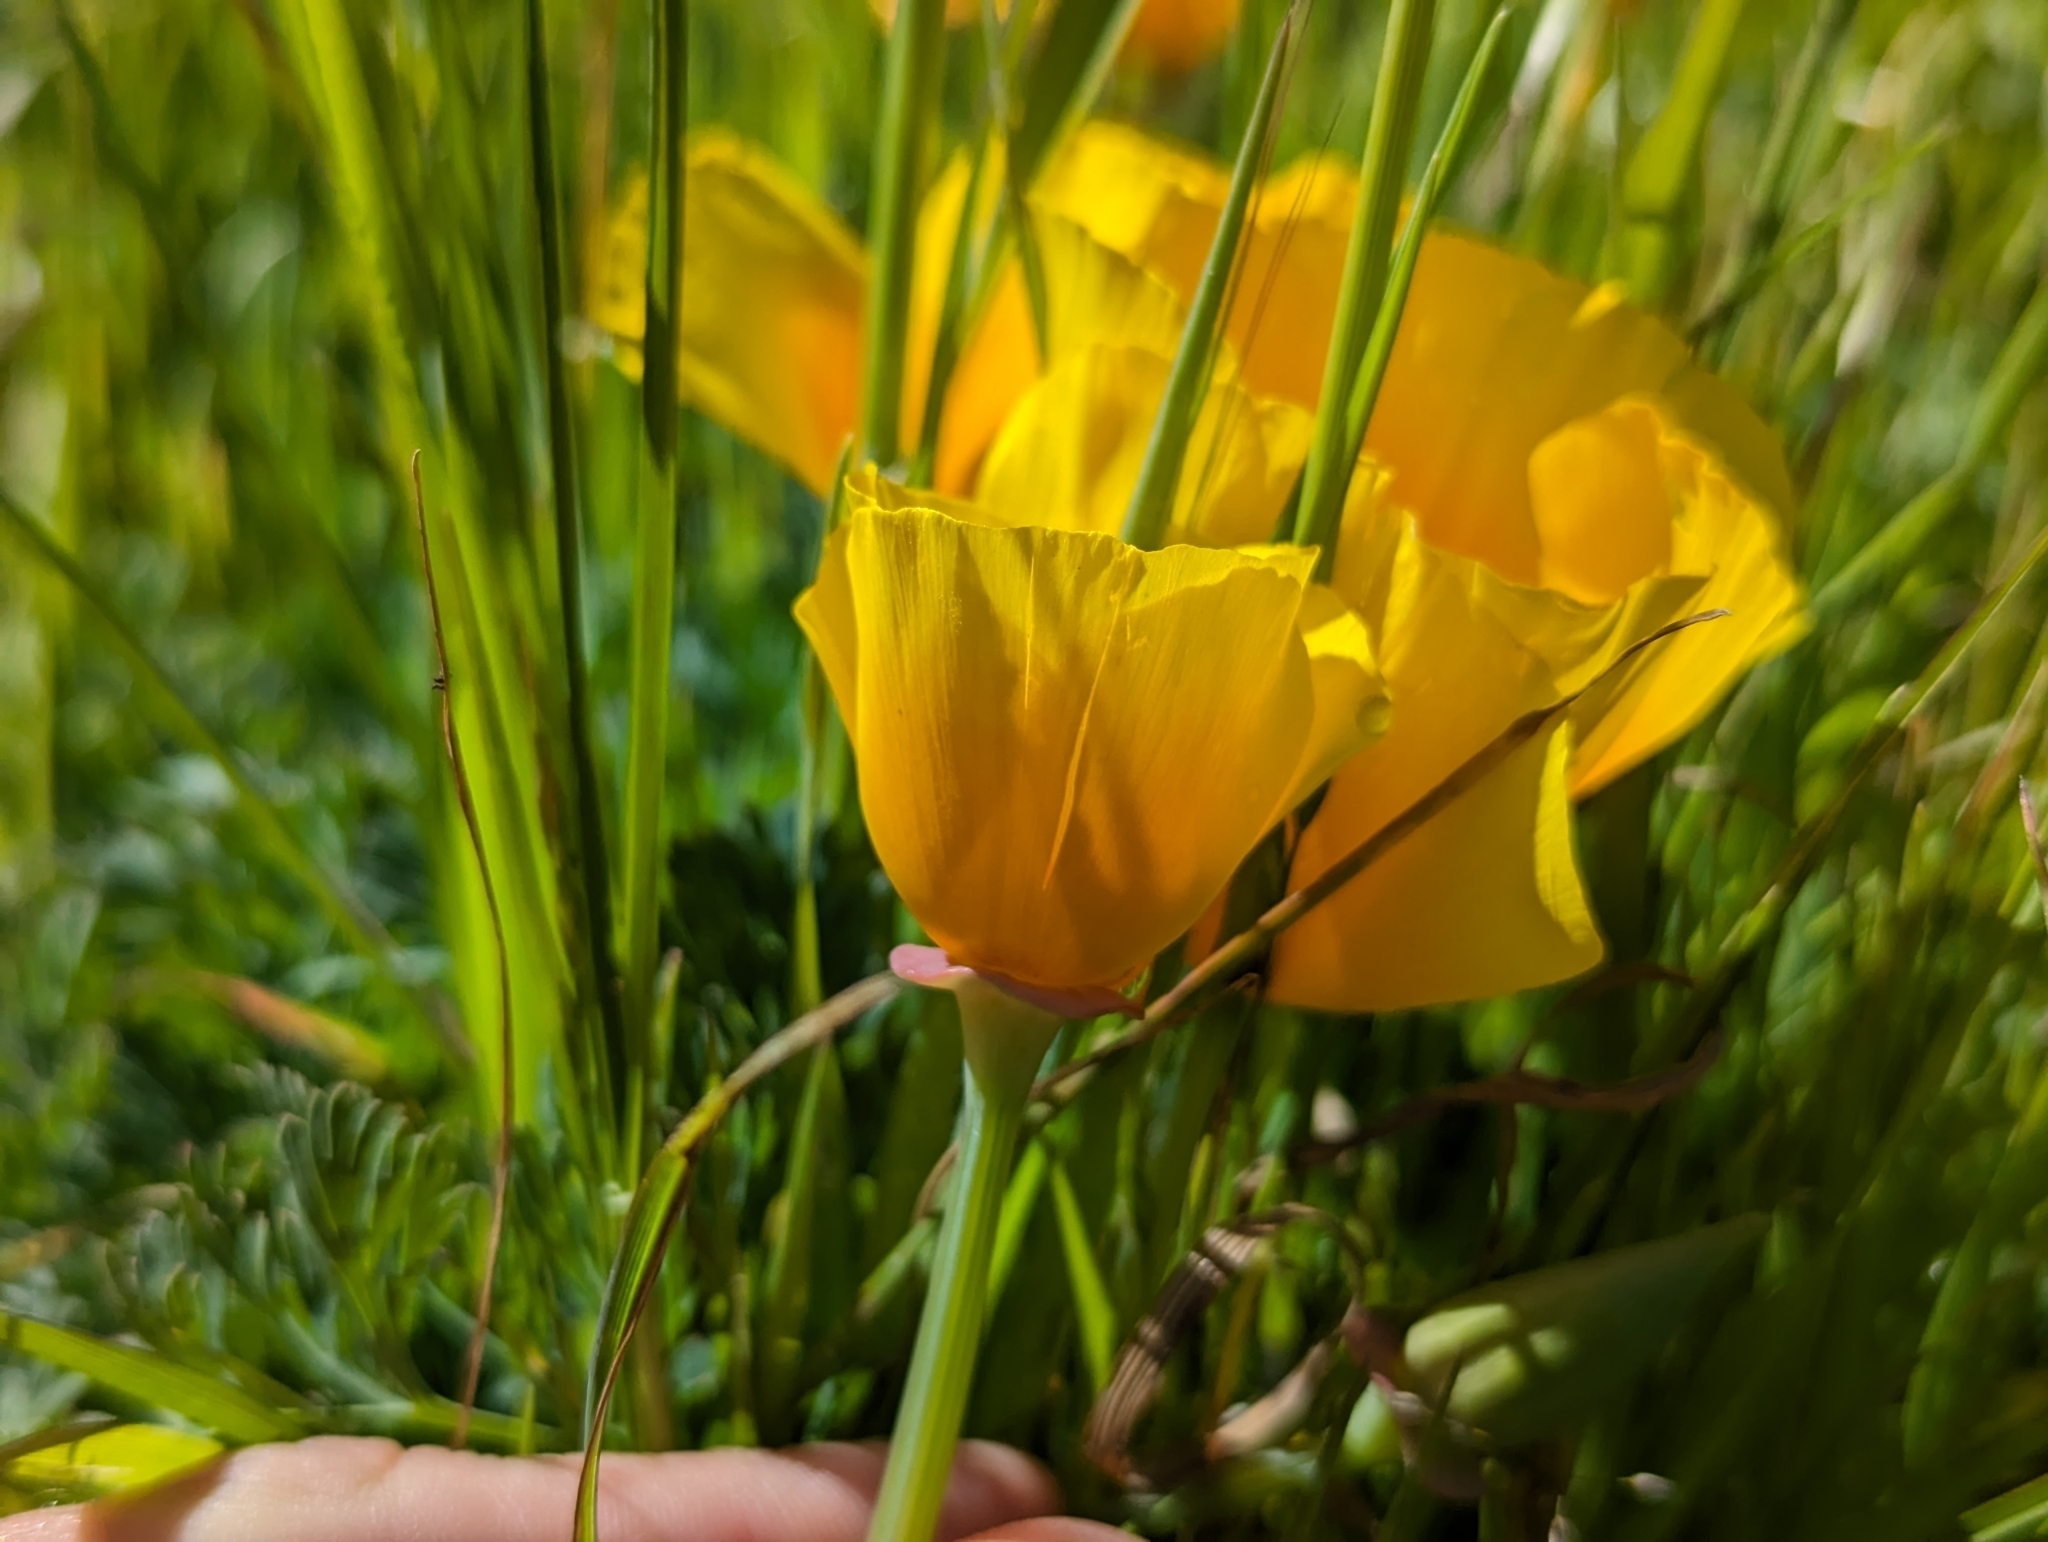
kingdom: Plantae
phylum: Tracheophyta
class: Magnoliopsida
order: Ranunculales
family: Papaveraceae
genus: Eschscholzia
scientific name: Eschscholzia californica
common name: California poppy
